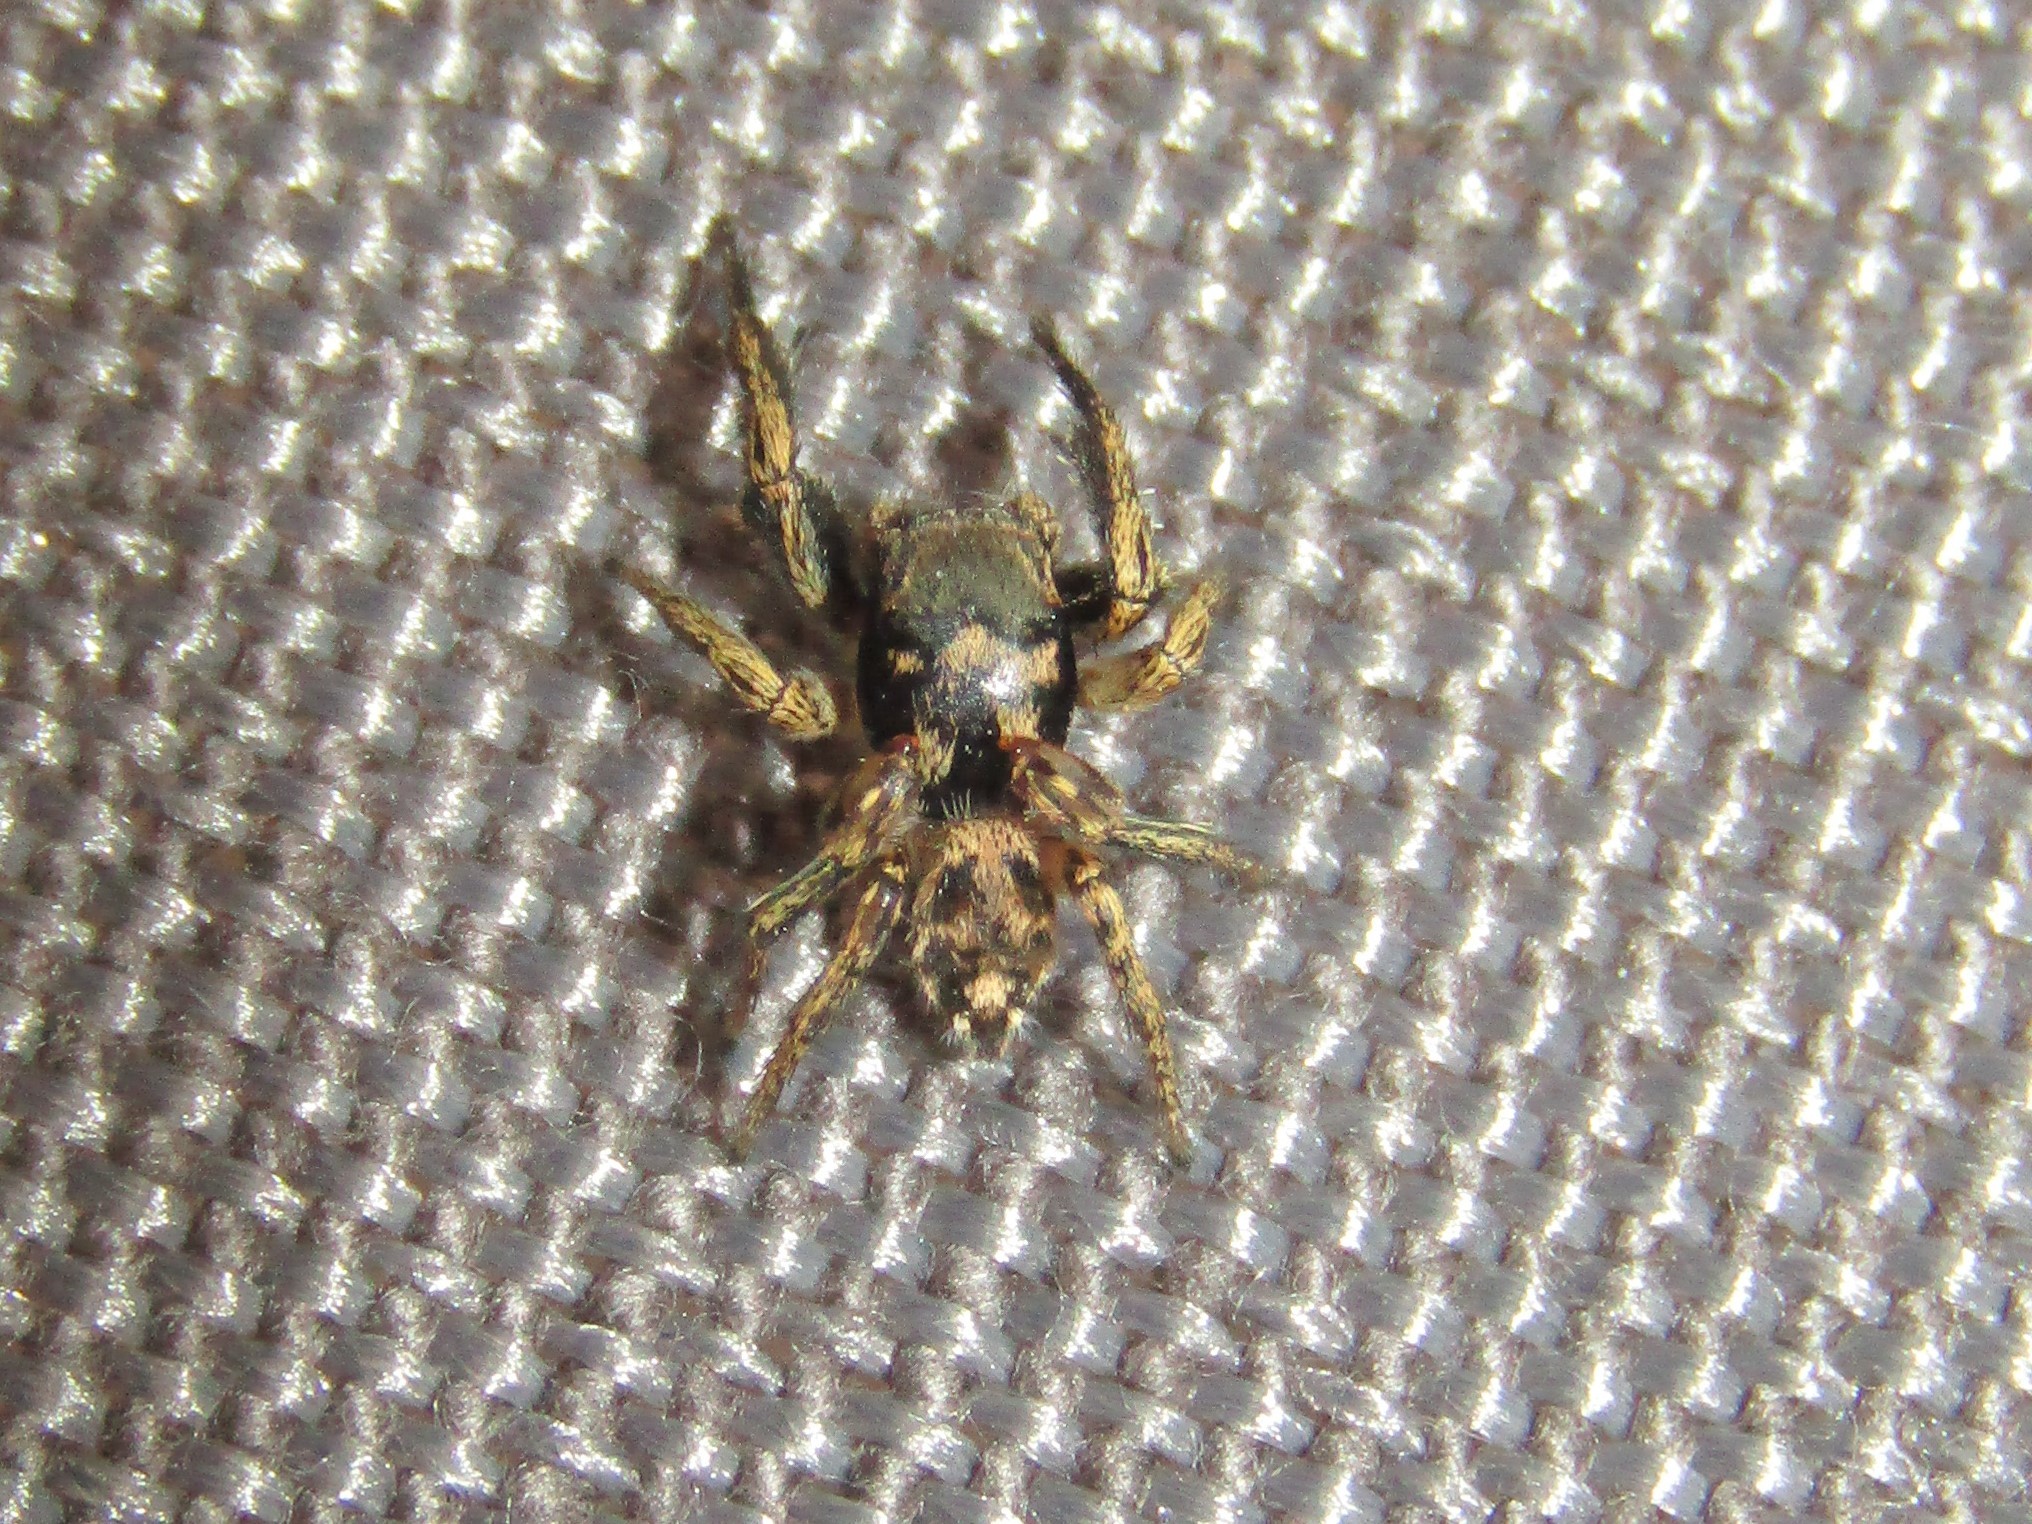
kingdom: Animalia
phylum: Arthropoda
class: Arachnida
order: Araneae
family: Salticidae
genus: Habronattus
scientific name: Habronattus coecatus
